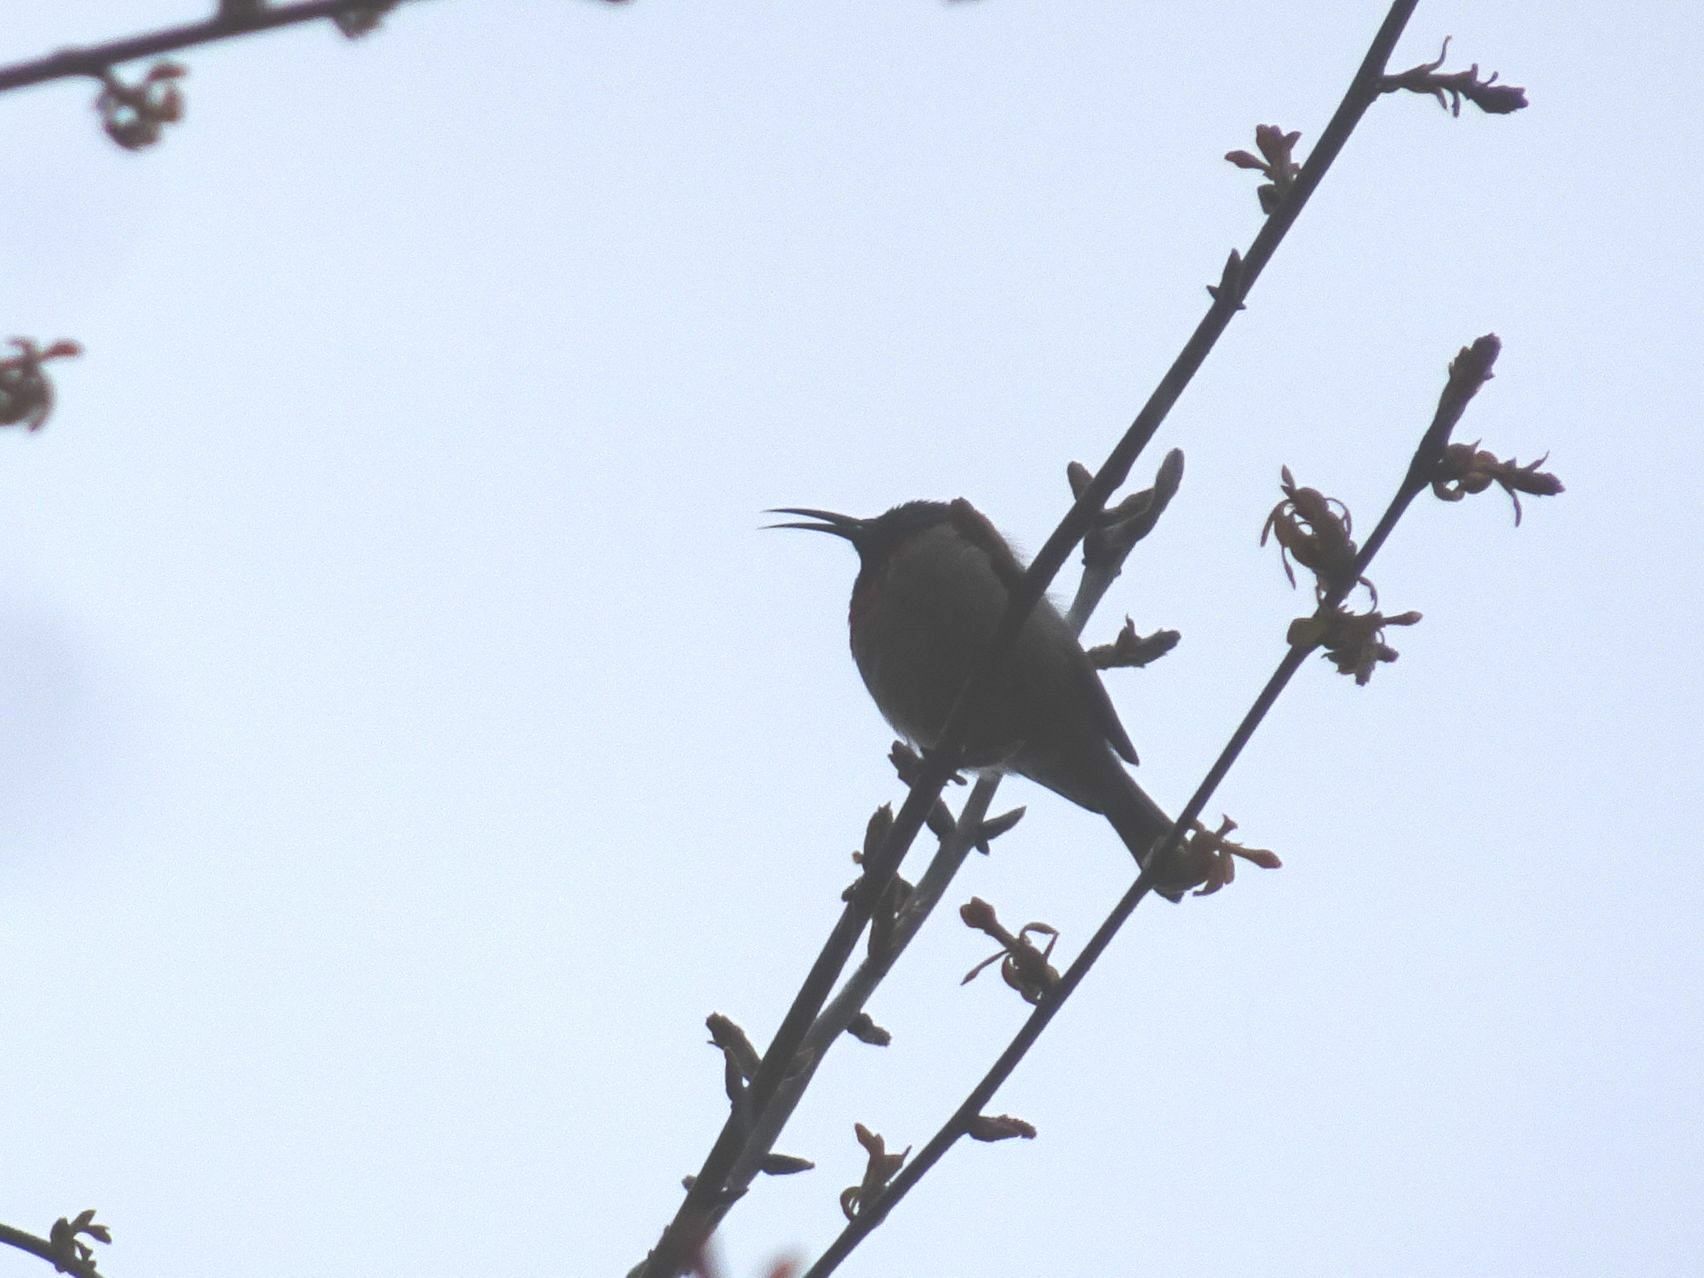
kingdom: Animalia
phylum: Chordata
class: Aves
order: Passeriformes
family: Nectariniidae
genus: Cinnyris
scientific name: Cinnyris chalybeus
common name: Southern double-collared sunbird
